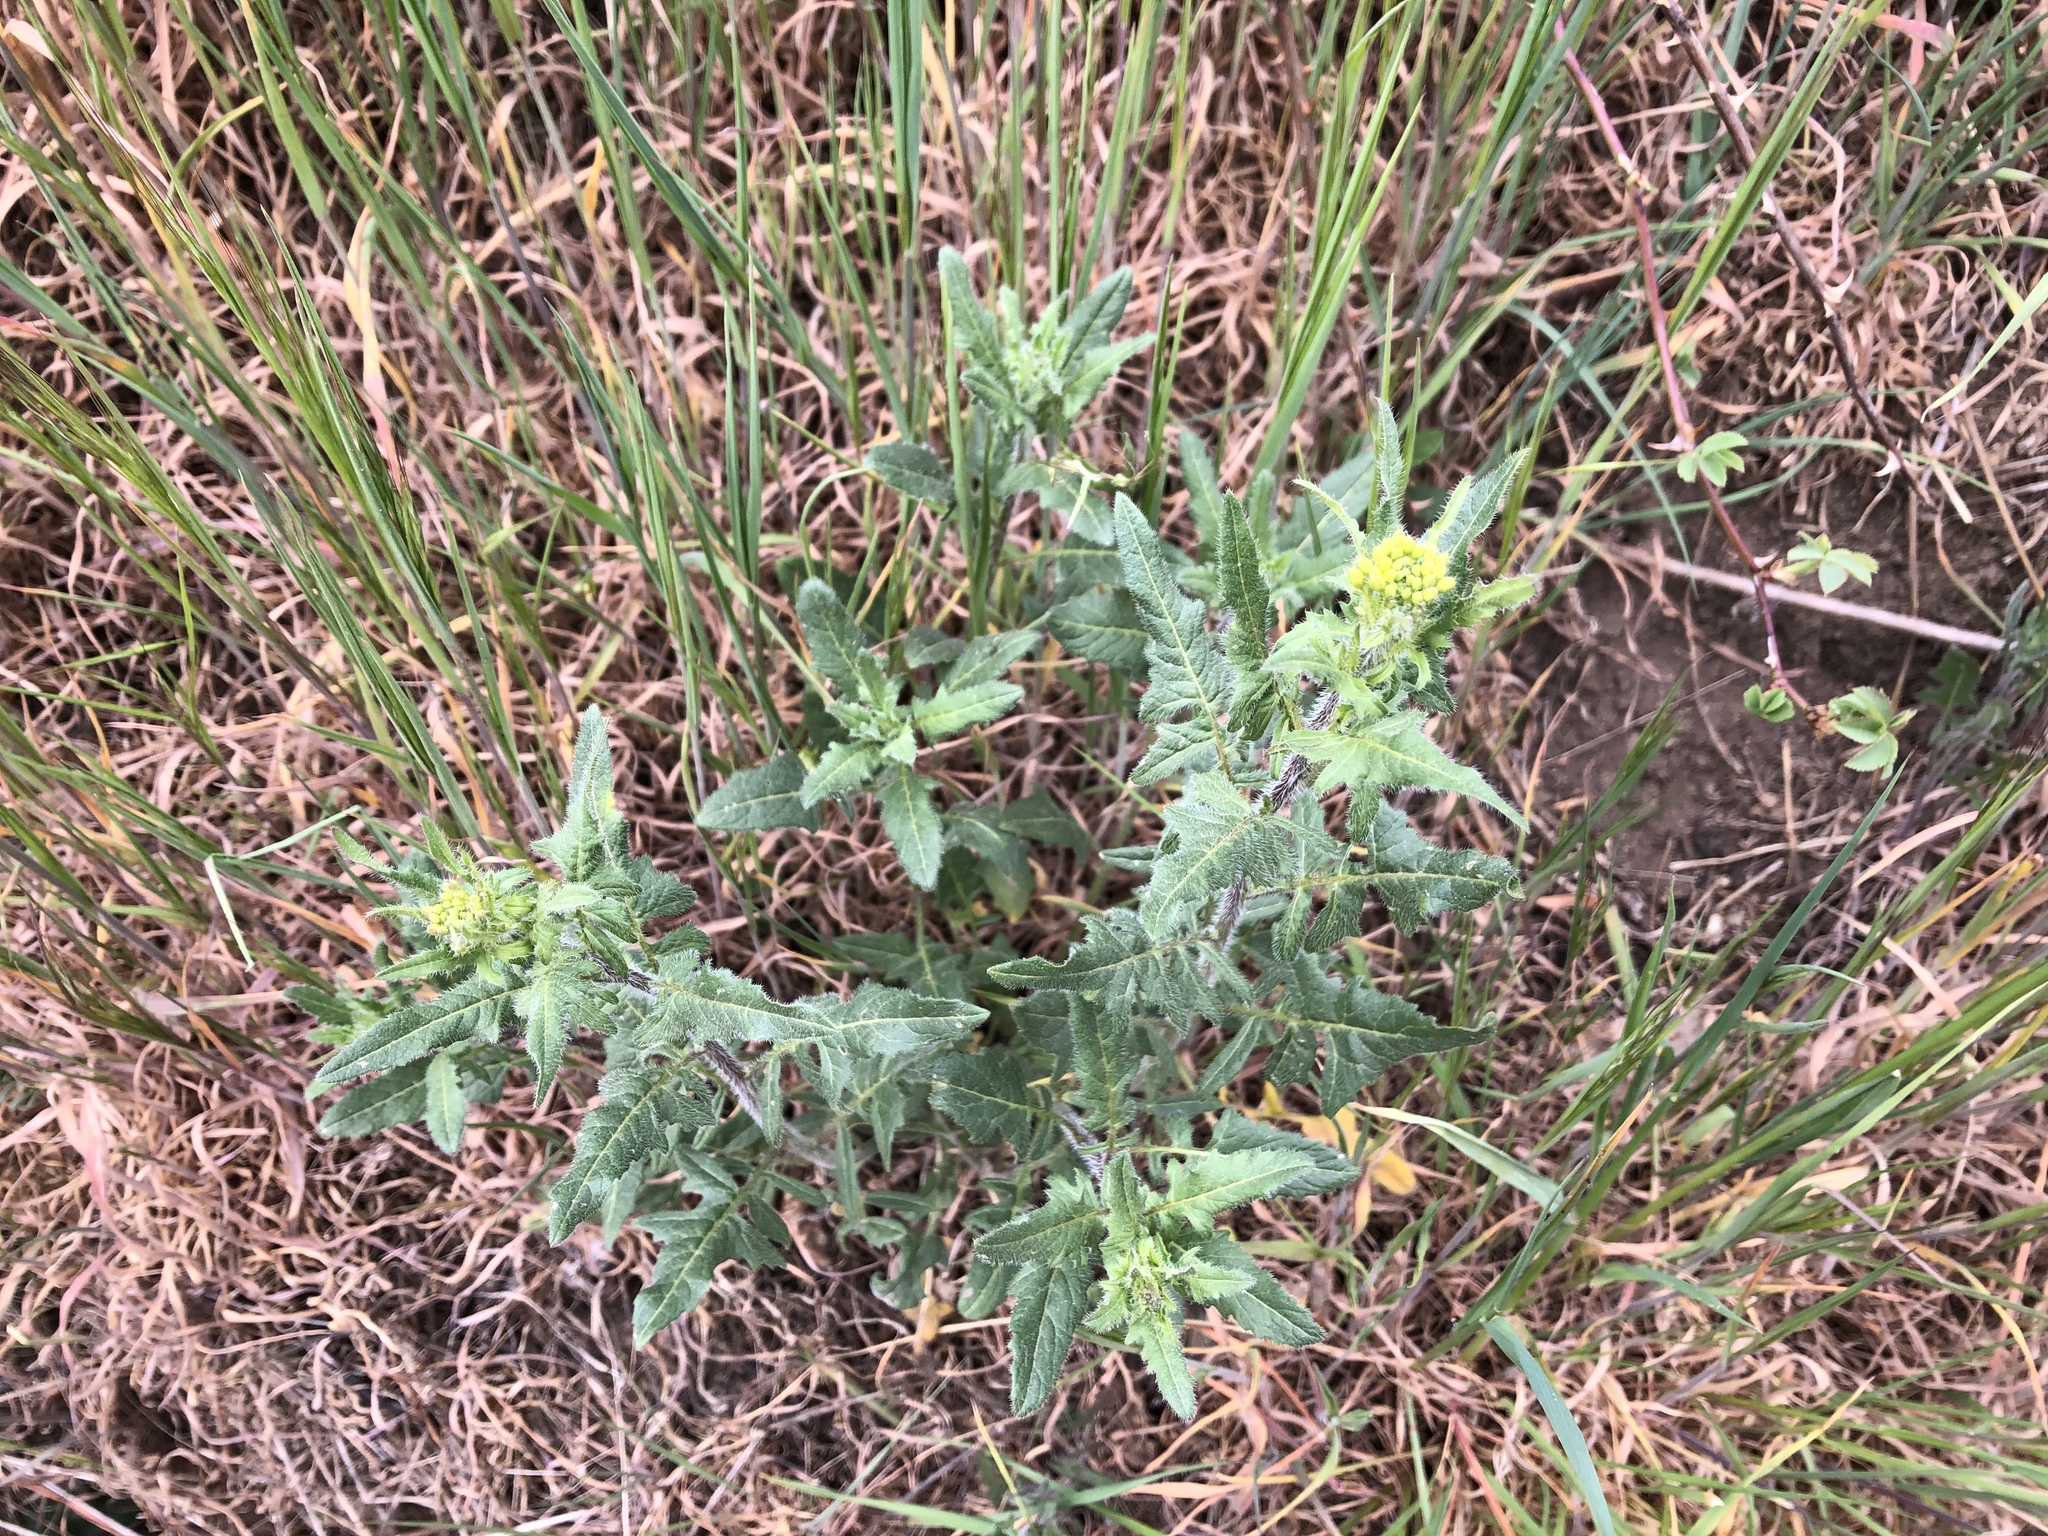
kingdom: Plantae
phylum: Tracheophyta
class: Magnoliopsida
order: Brassicales
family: Brassicaceae
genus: Sisymbrium
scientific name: Sisymbrium loeselii
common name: False london-rocket
